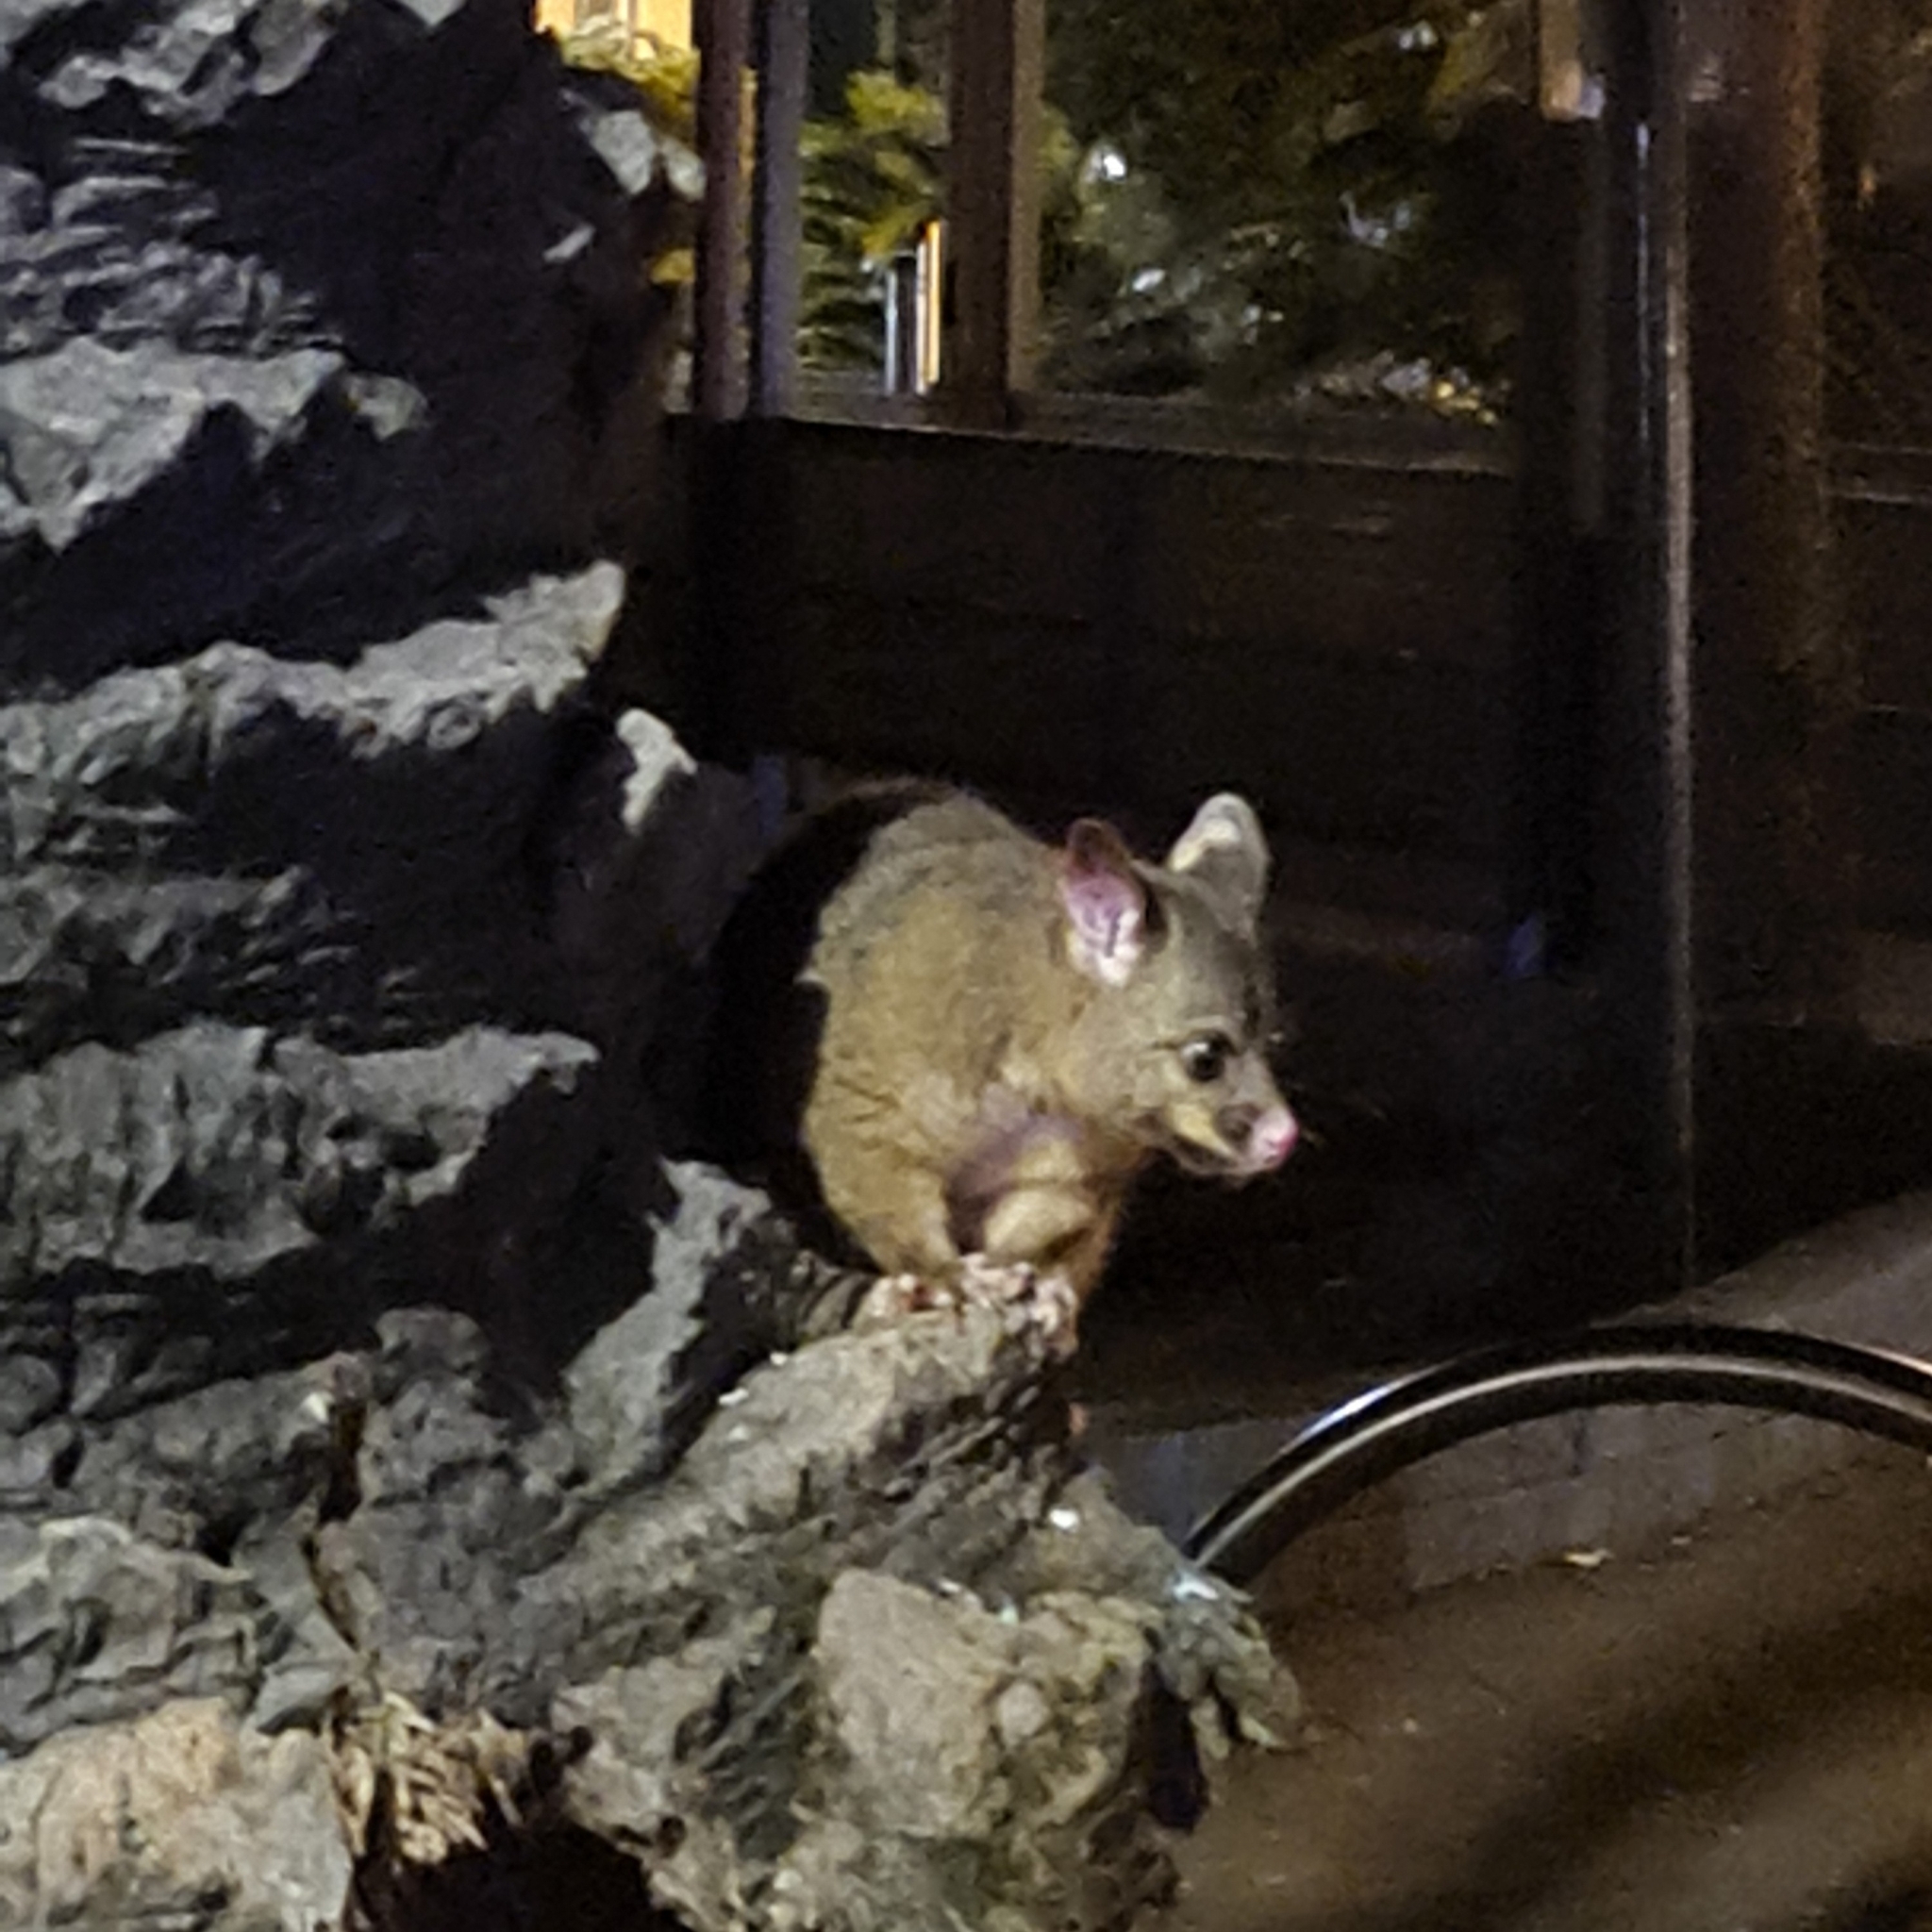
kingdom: Animalia
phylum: Chordata
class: Mammalia
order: Diprotodontia
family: Phalangeridae
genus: Trichosurus
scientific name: Trichosurus vulpecula
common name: Common brushtail
